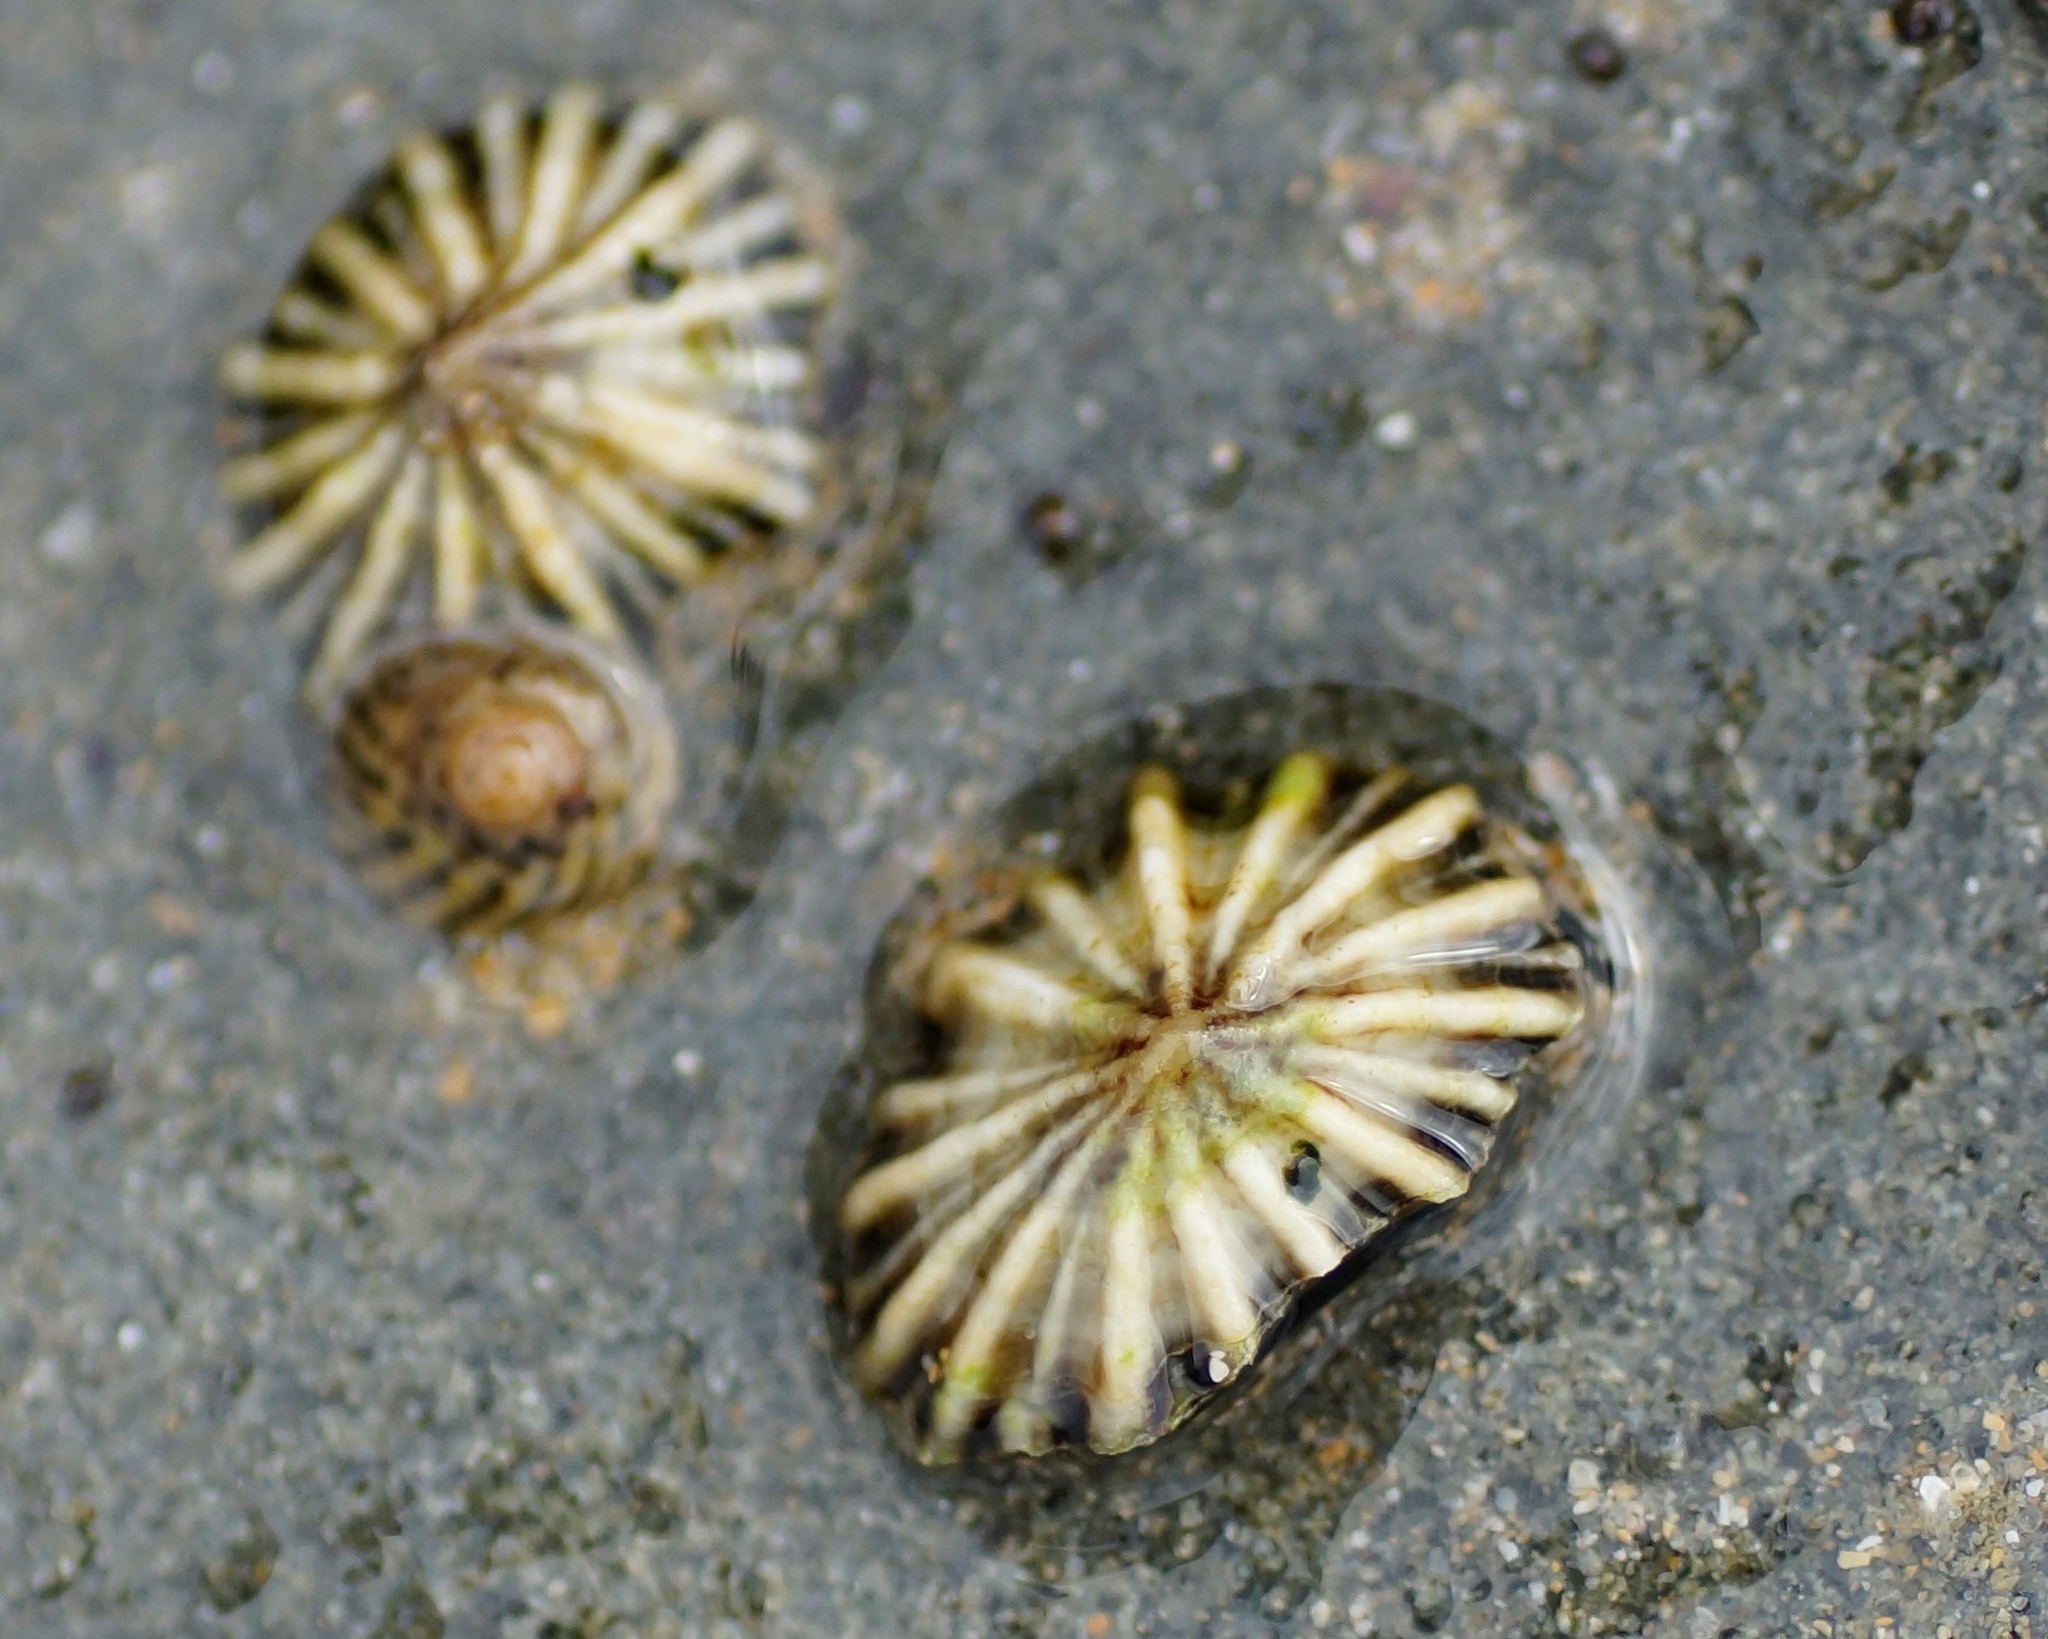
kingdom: Animalia
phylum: Mollusca
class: Gastropoda
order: Siphonariida
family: Siphonariidae
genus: Siphonaria
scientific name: Siphonaria diemenensis
